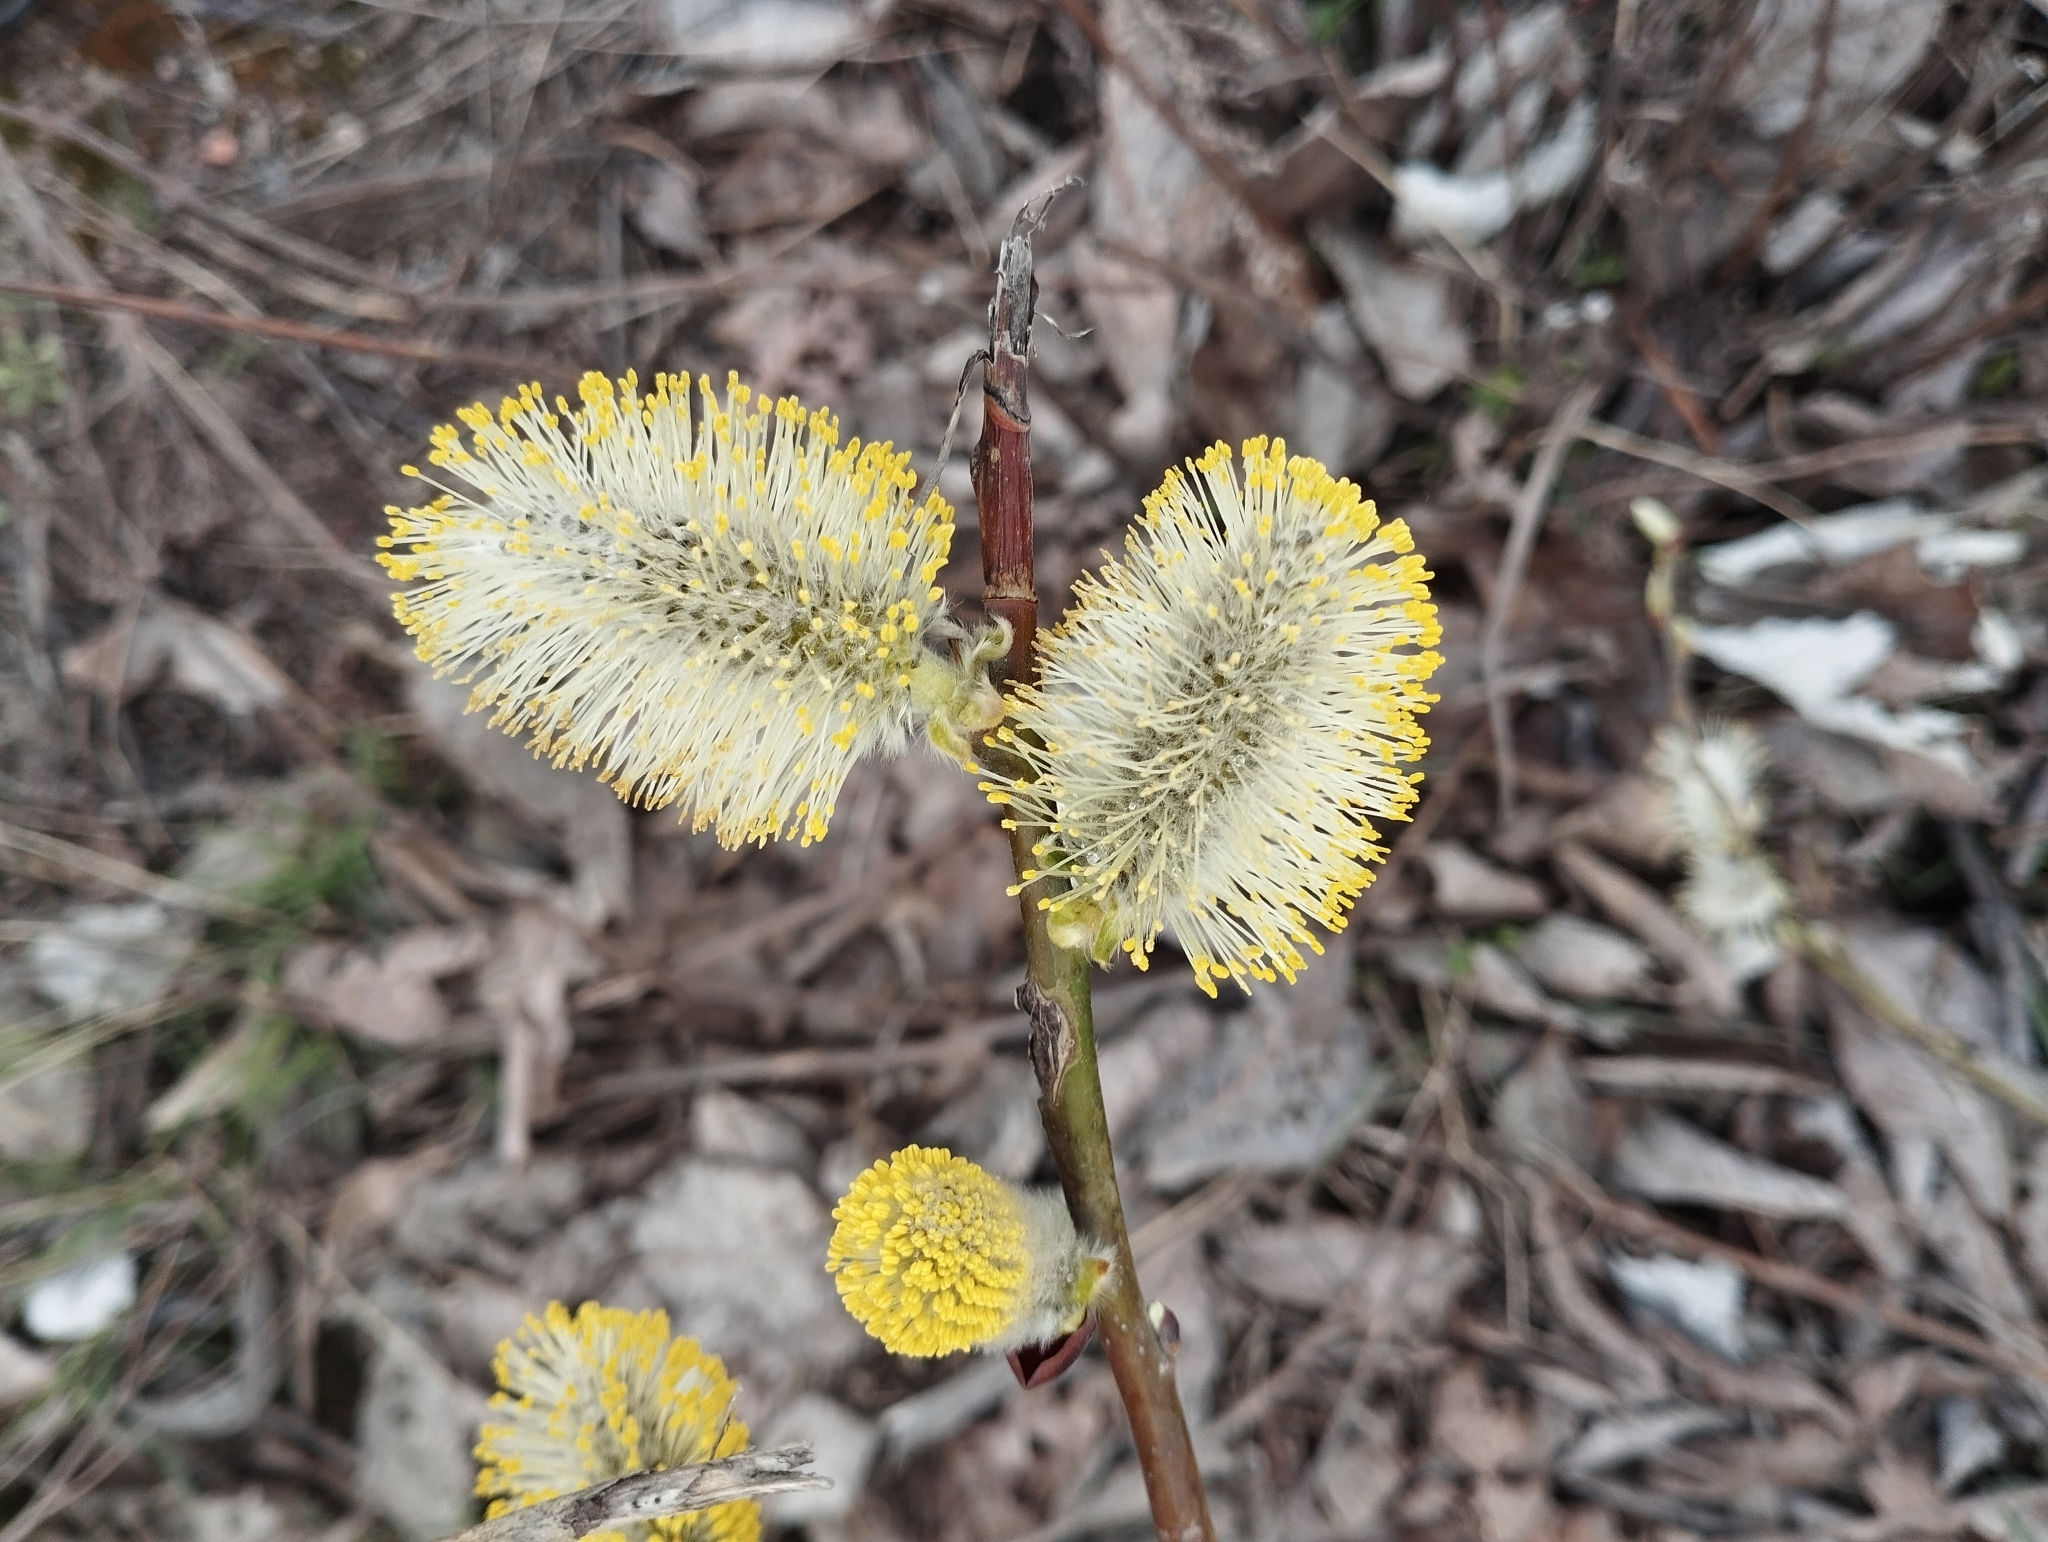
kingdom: Plantae
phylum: Tracheophyta
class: Magnoliopsida
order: Malpighiales
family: Salicaceae
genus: Salix
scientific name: Salix caprea
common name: Goat willow
